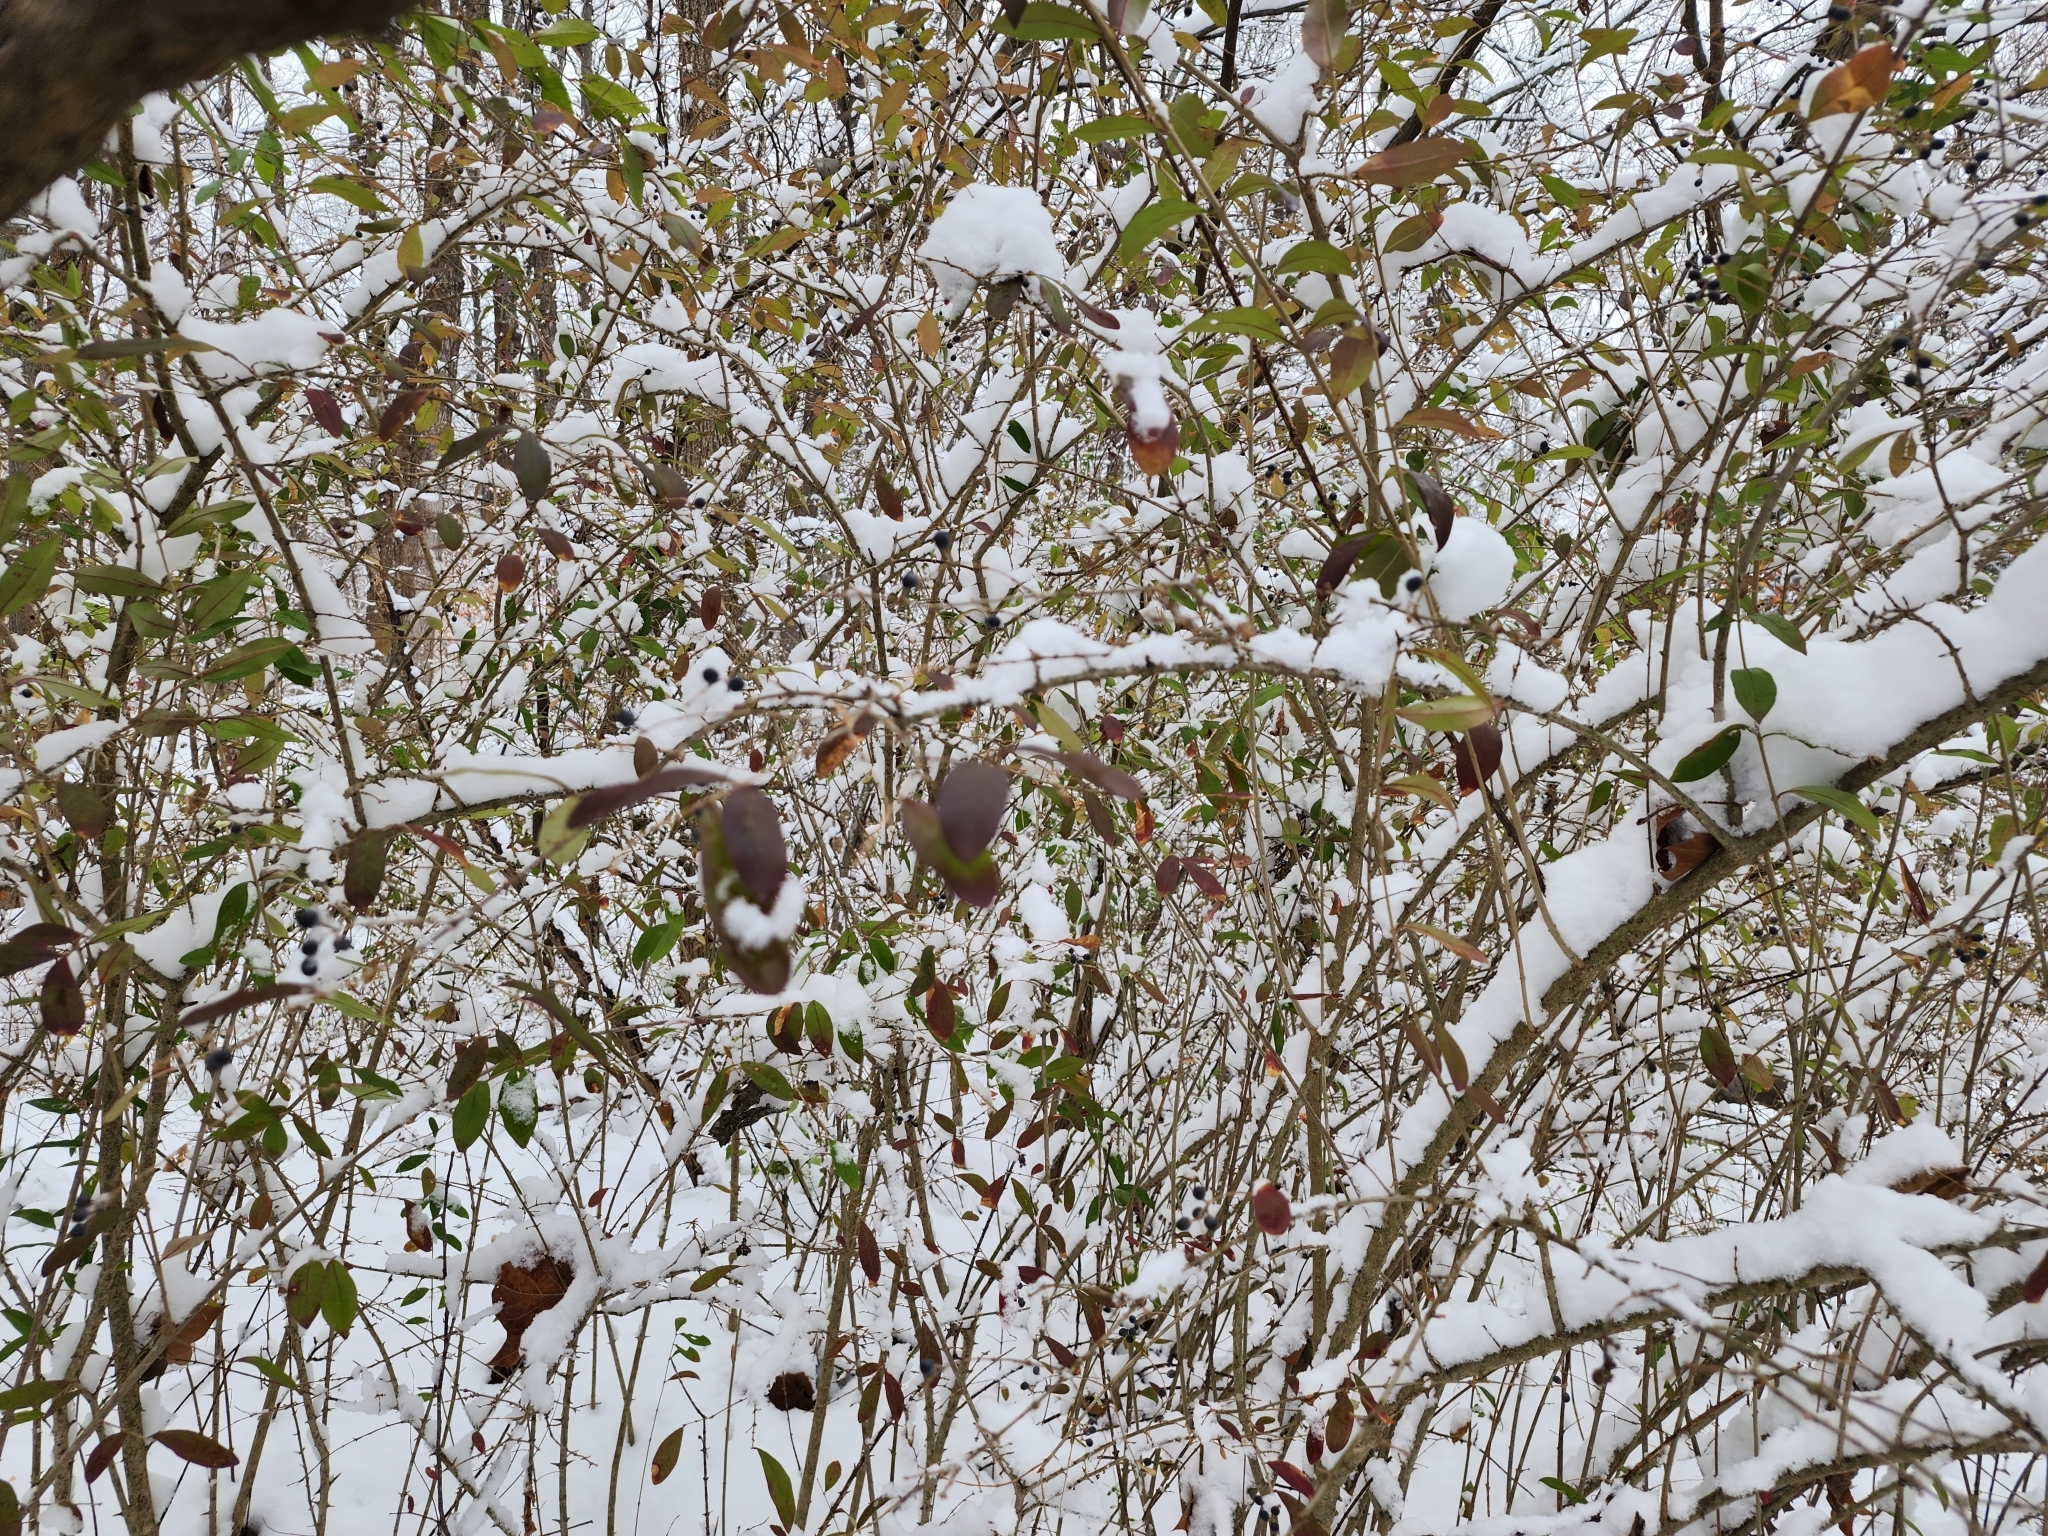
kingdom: Plantae
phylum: Tracheophyta
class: Magnoliopsida
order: Lamiales
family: Oleaceae
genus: Ligustrum
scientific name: Ligustrum obtusifolium
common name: Border privet
